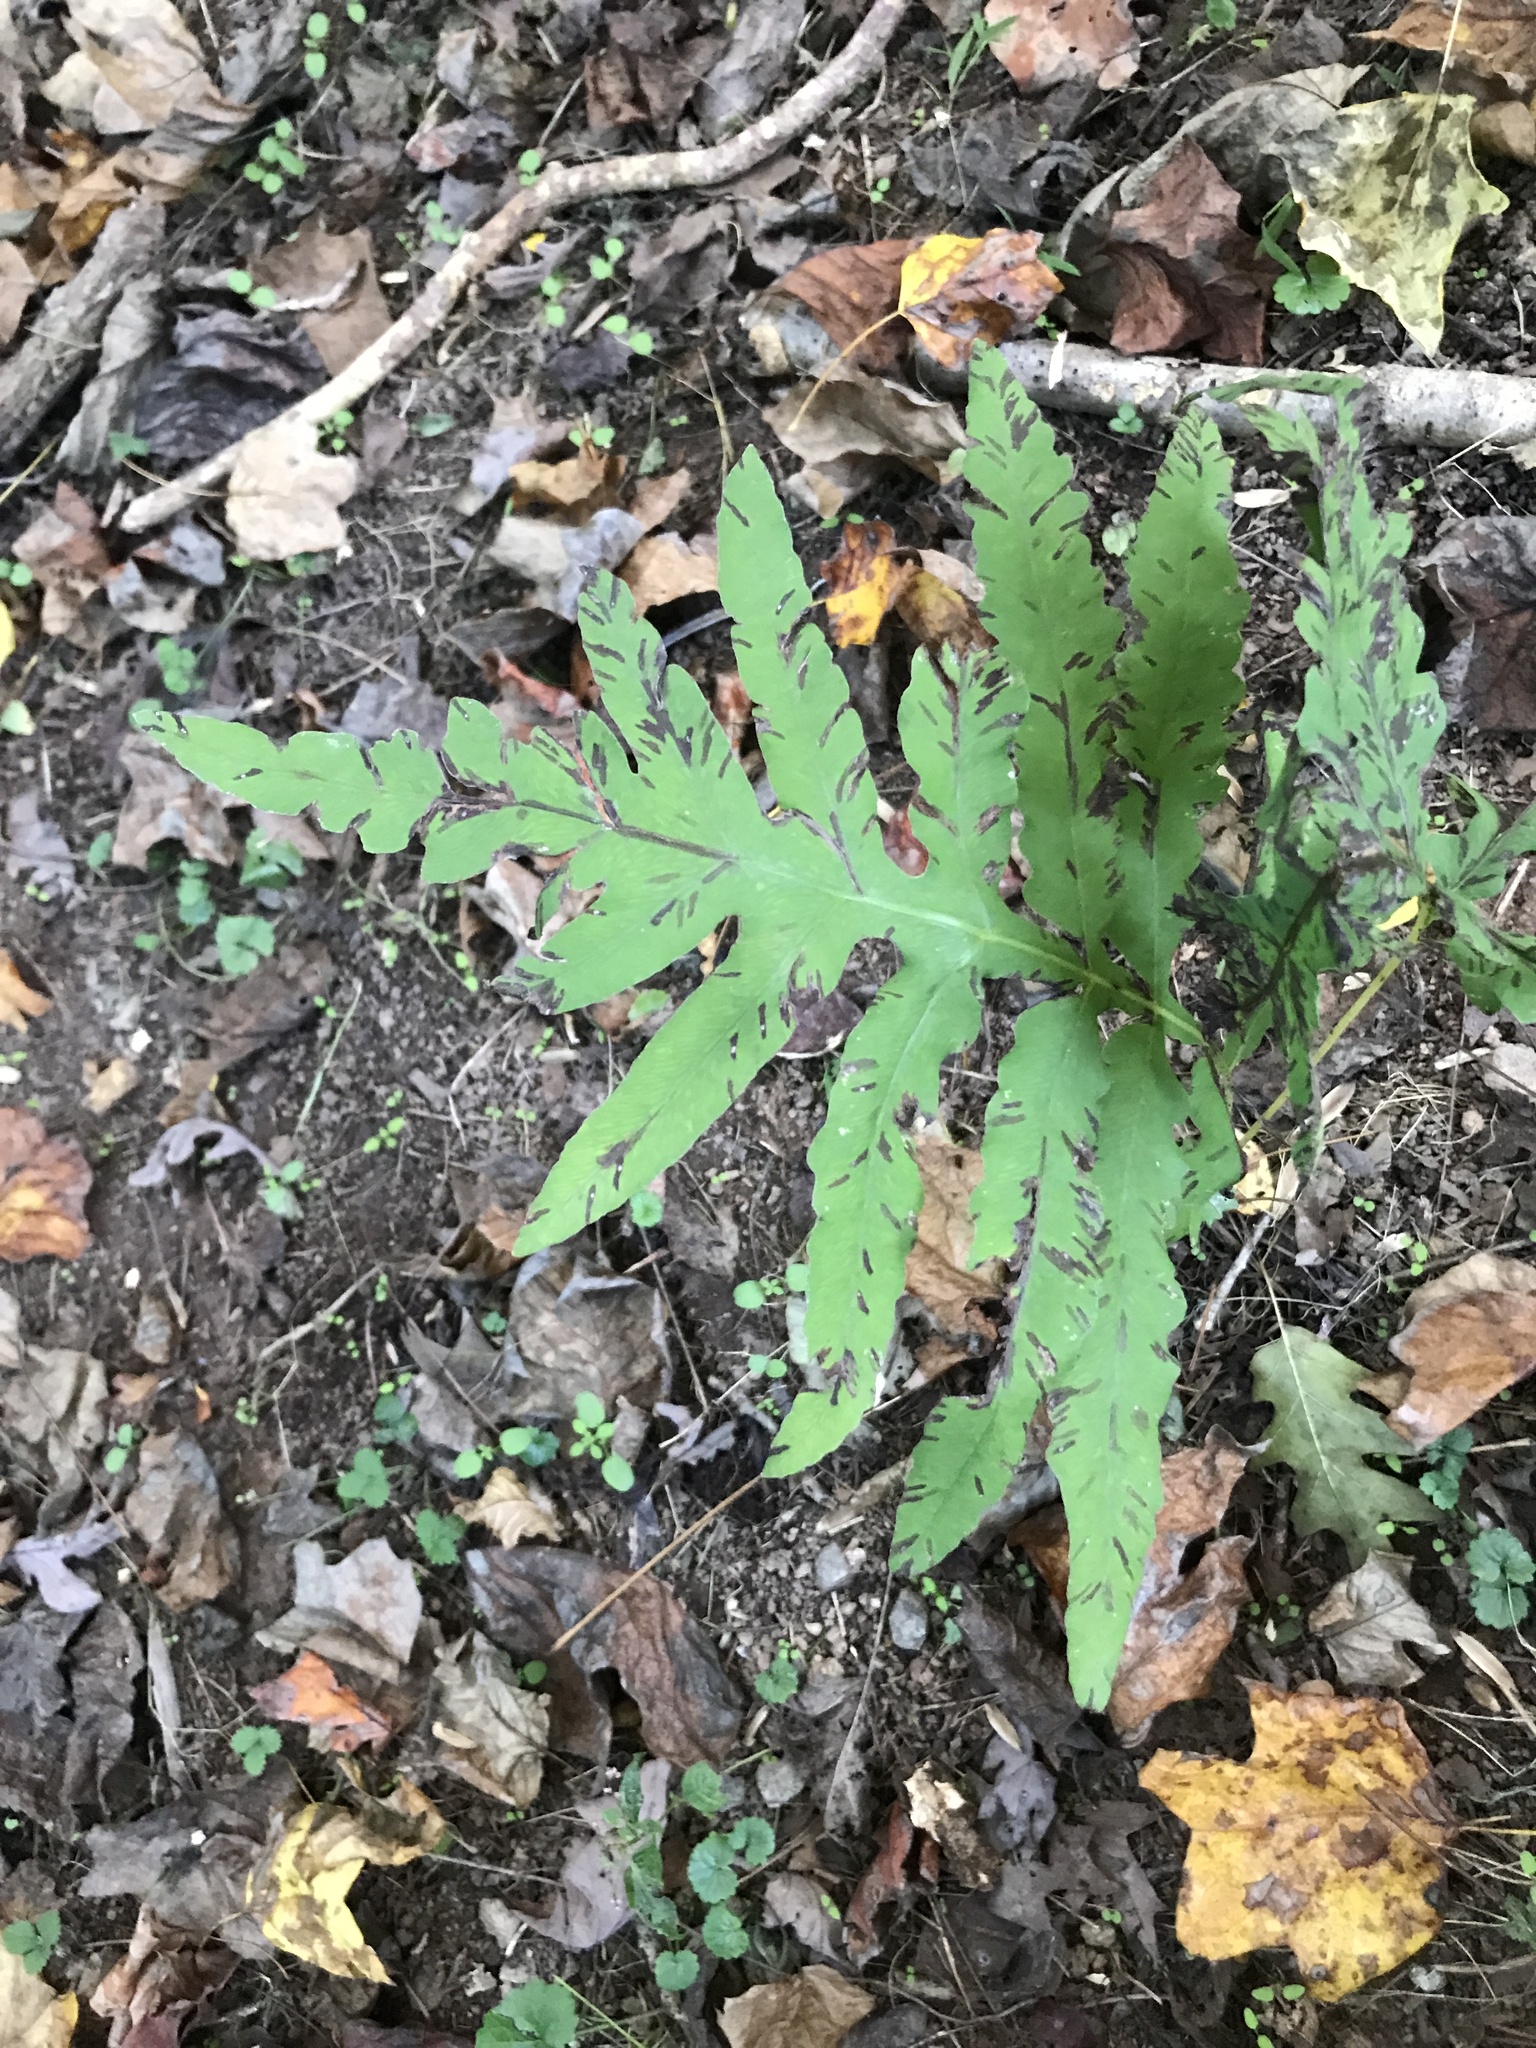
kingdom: Plantae
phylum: Tracheophyta
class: Polypodiopsida
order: Polypodiales
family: Onocleaceae
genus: Onoclea
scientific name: Onoclea sensibilis
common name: Sensitive fern
